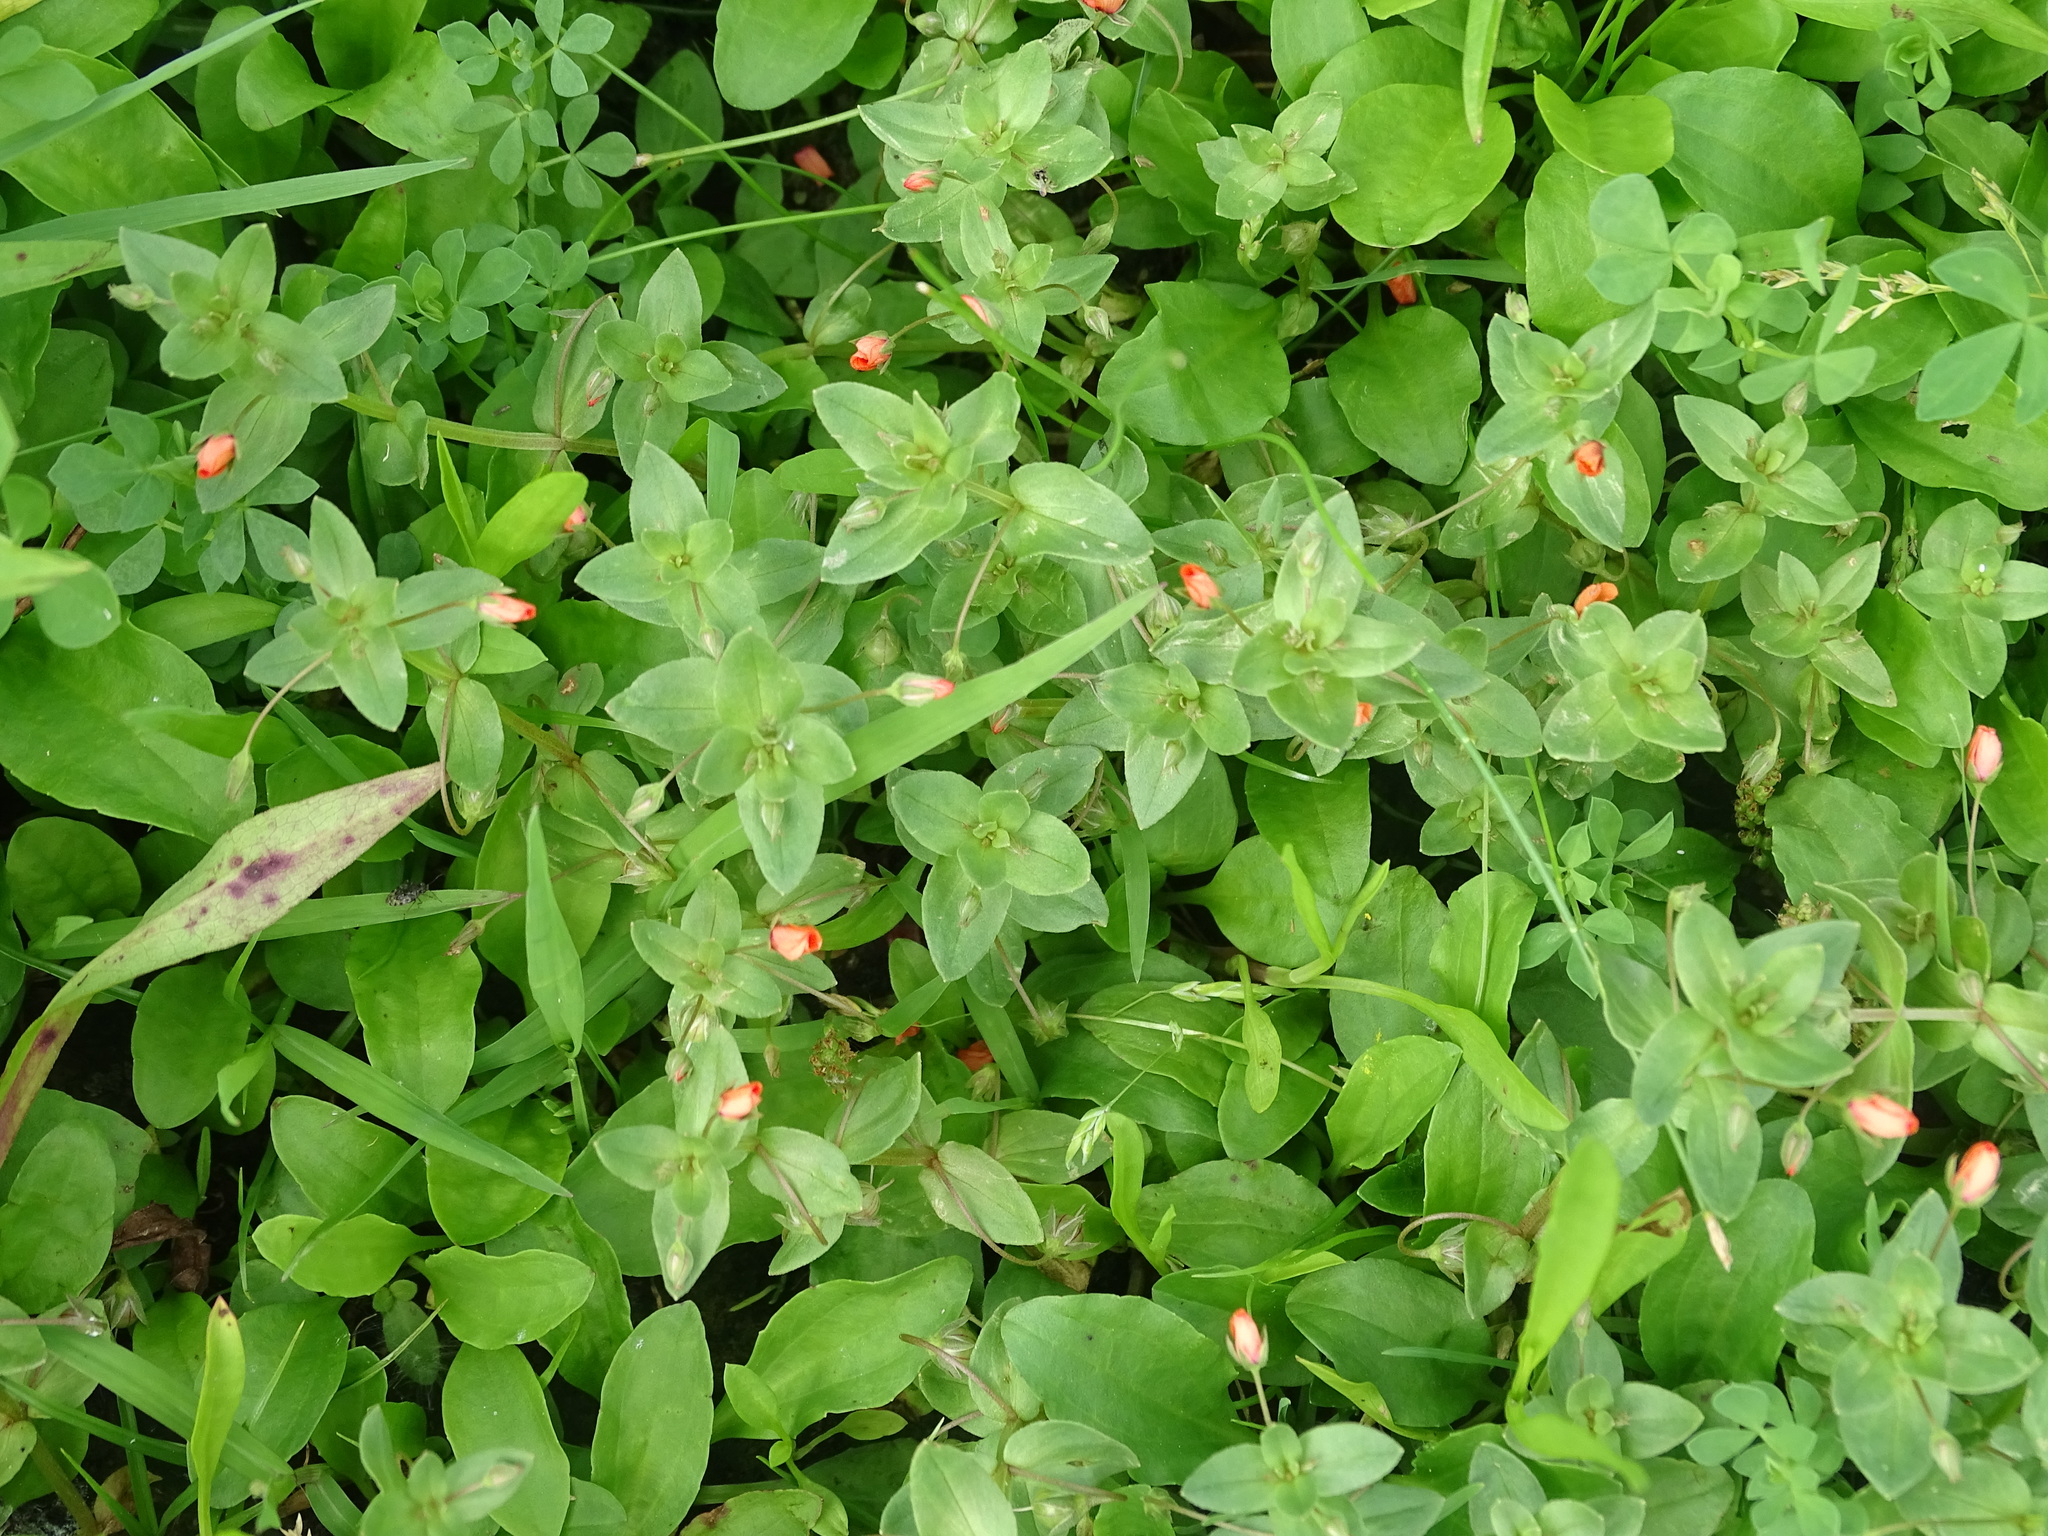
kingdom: Plantae
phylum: Tracheophyta
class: Magnoliopsida
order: Ericales
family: Primulaceae
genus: Lysimachia
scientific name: Lysimachia arvensis
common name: Scarlet pimpernel
